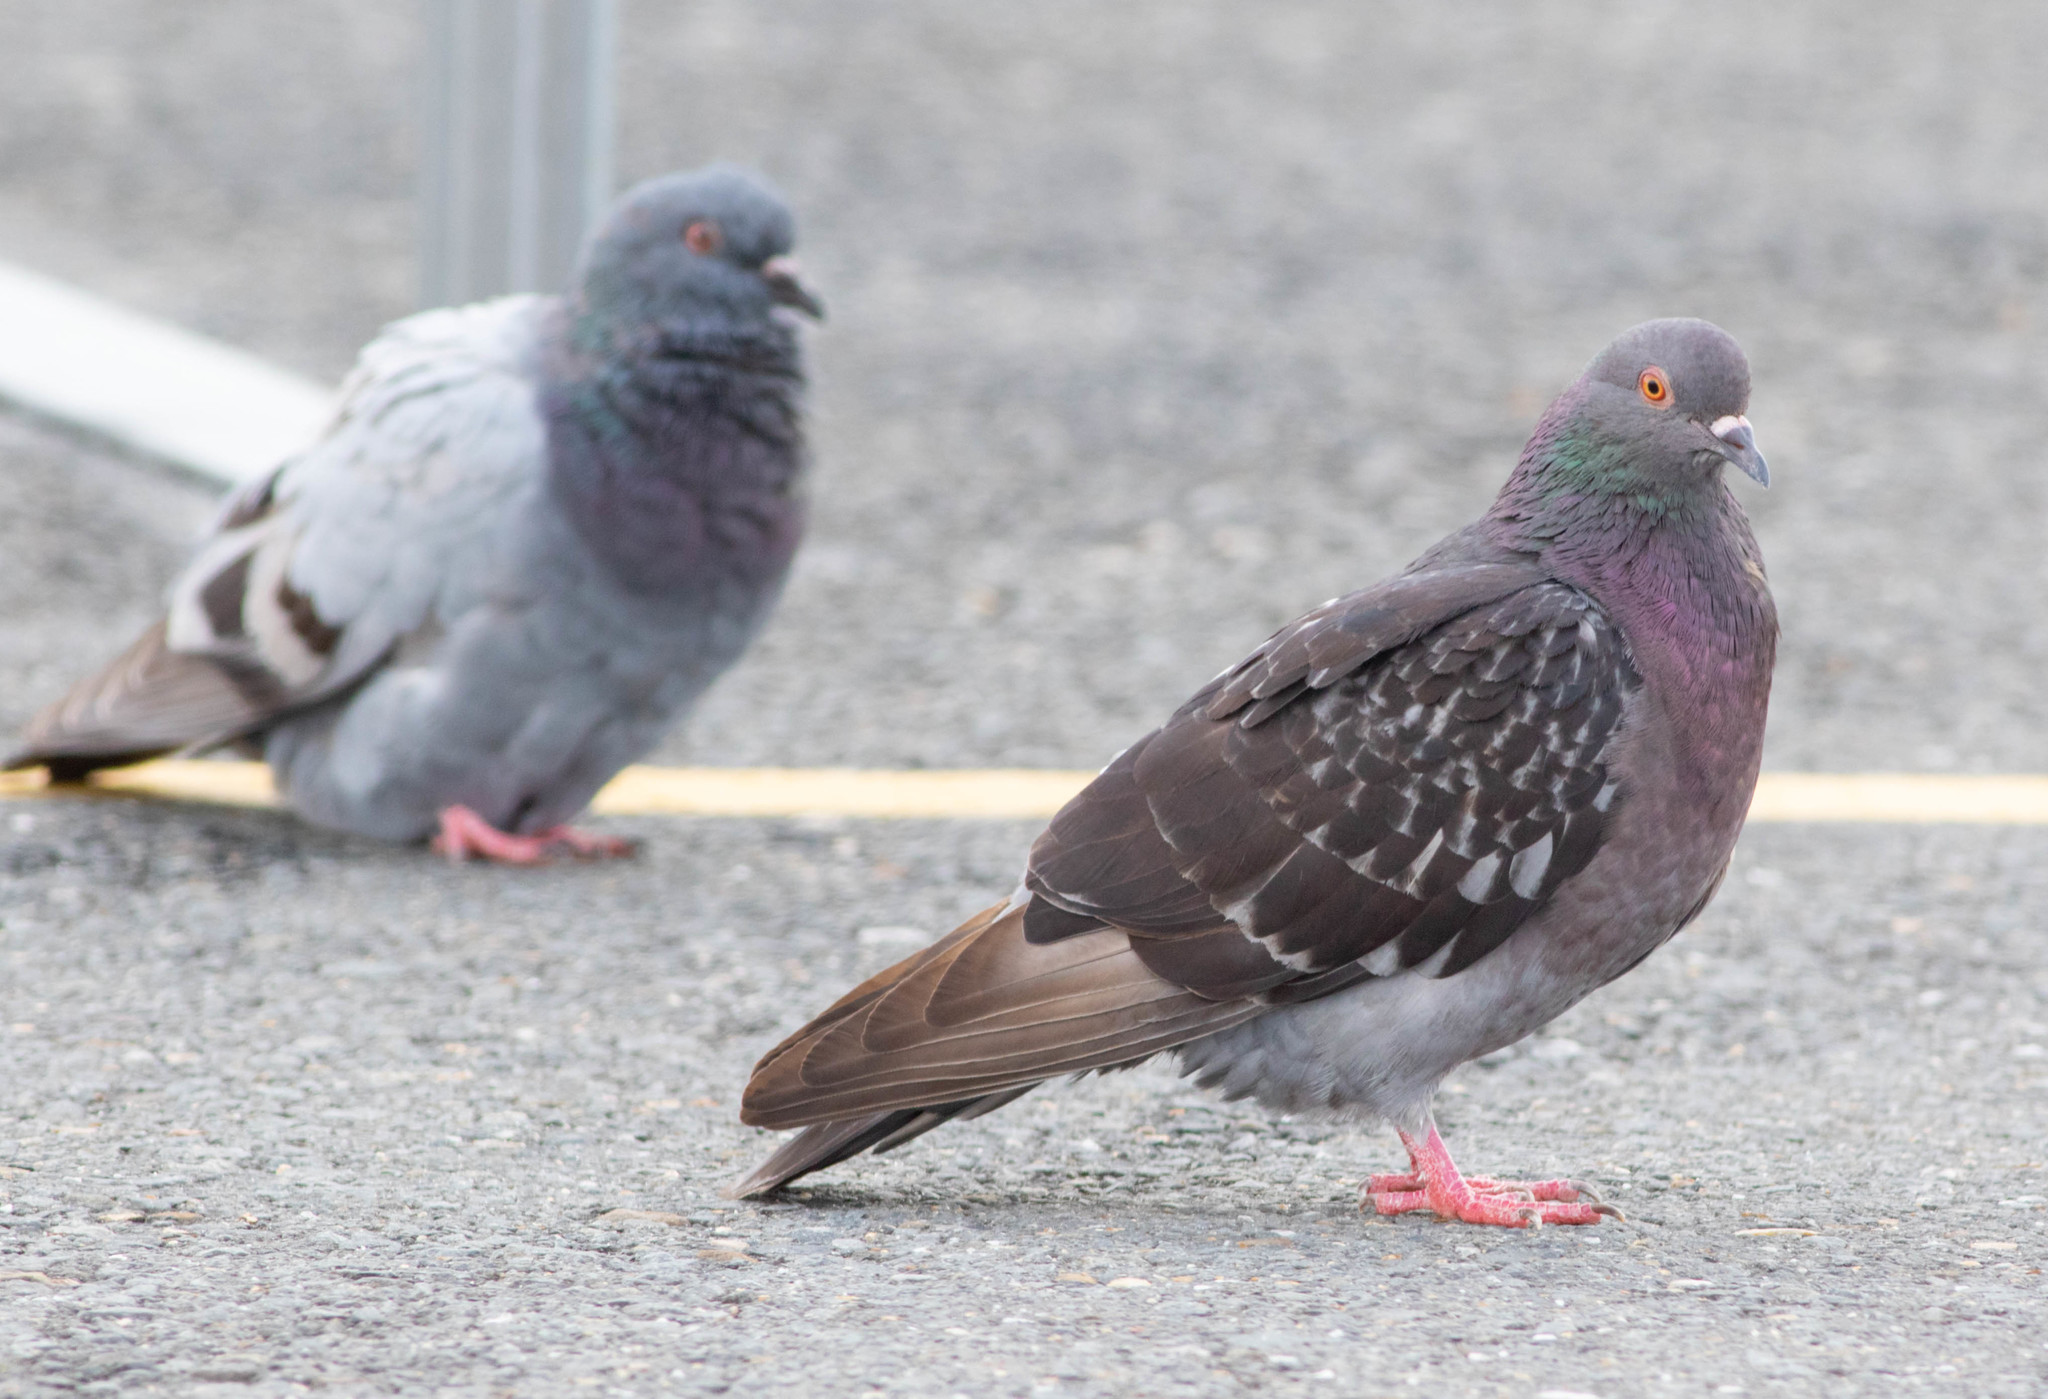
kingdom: Animalia
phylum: Chordata
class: Aves
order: Columbiformes
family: Columbidae
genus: Columba
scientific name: Columba livia
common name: Rock pigeon
